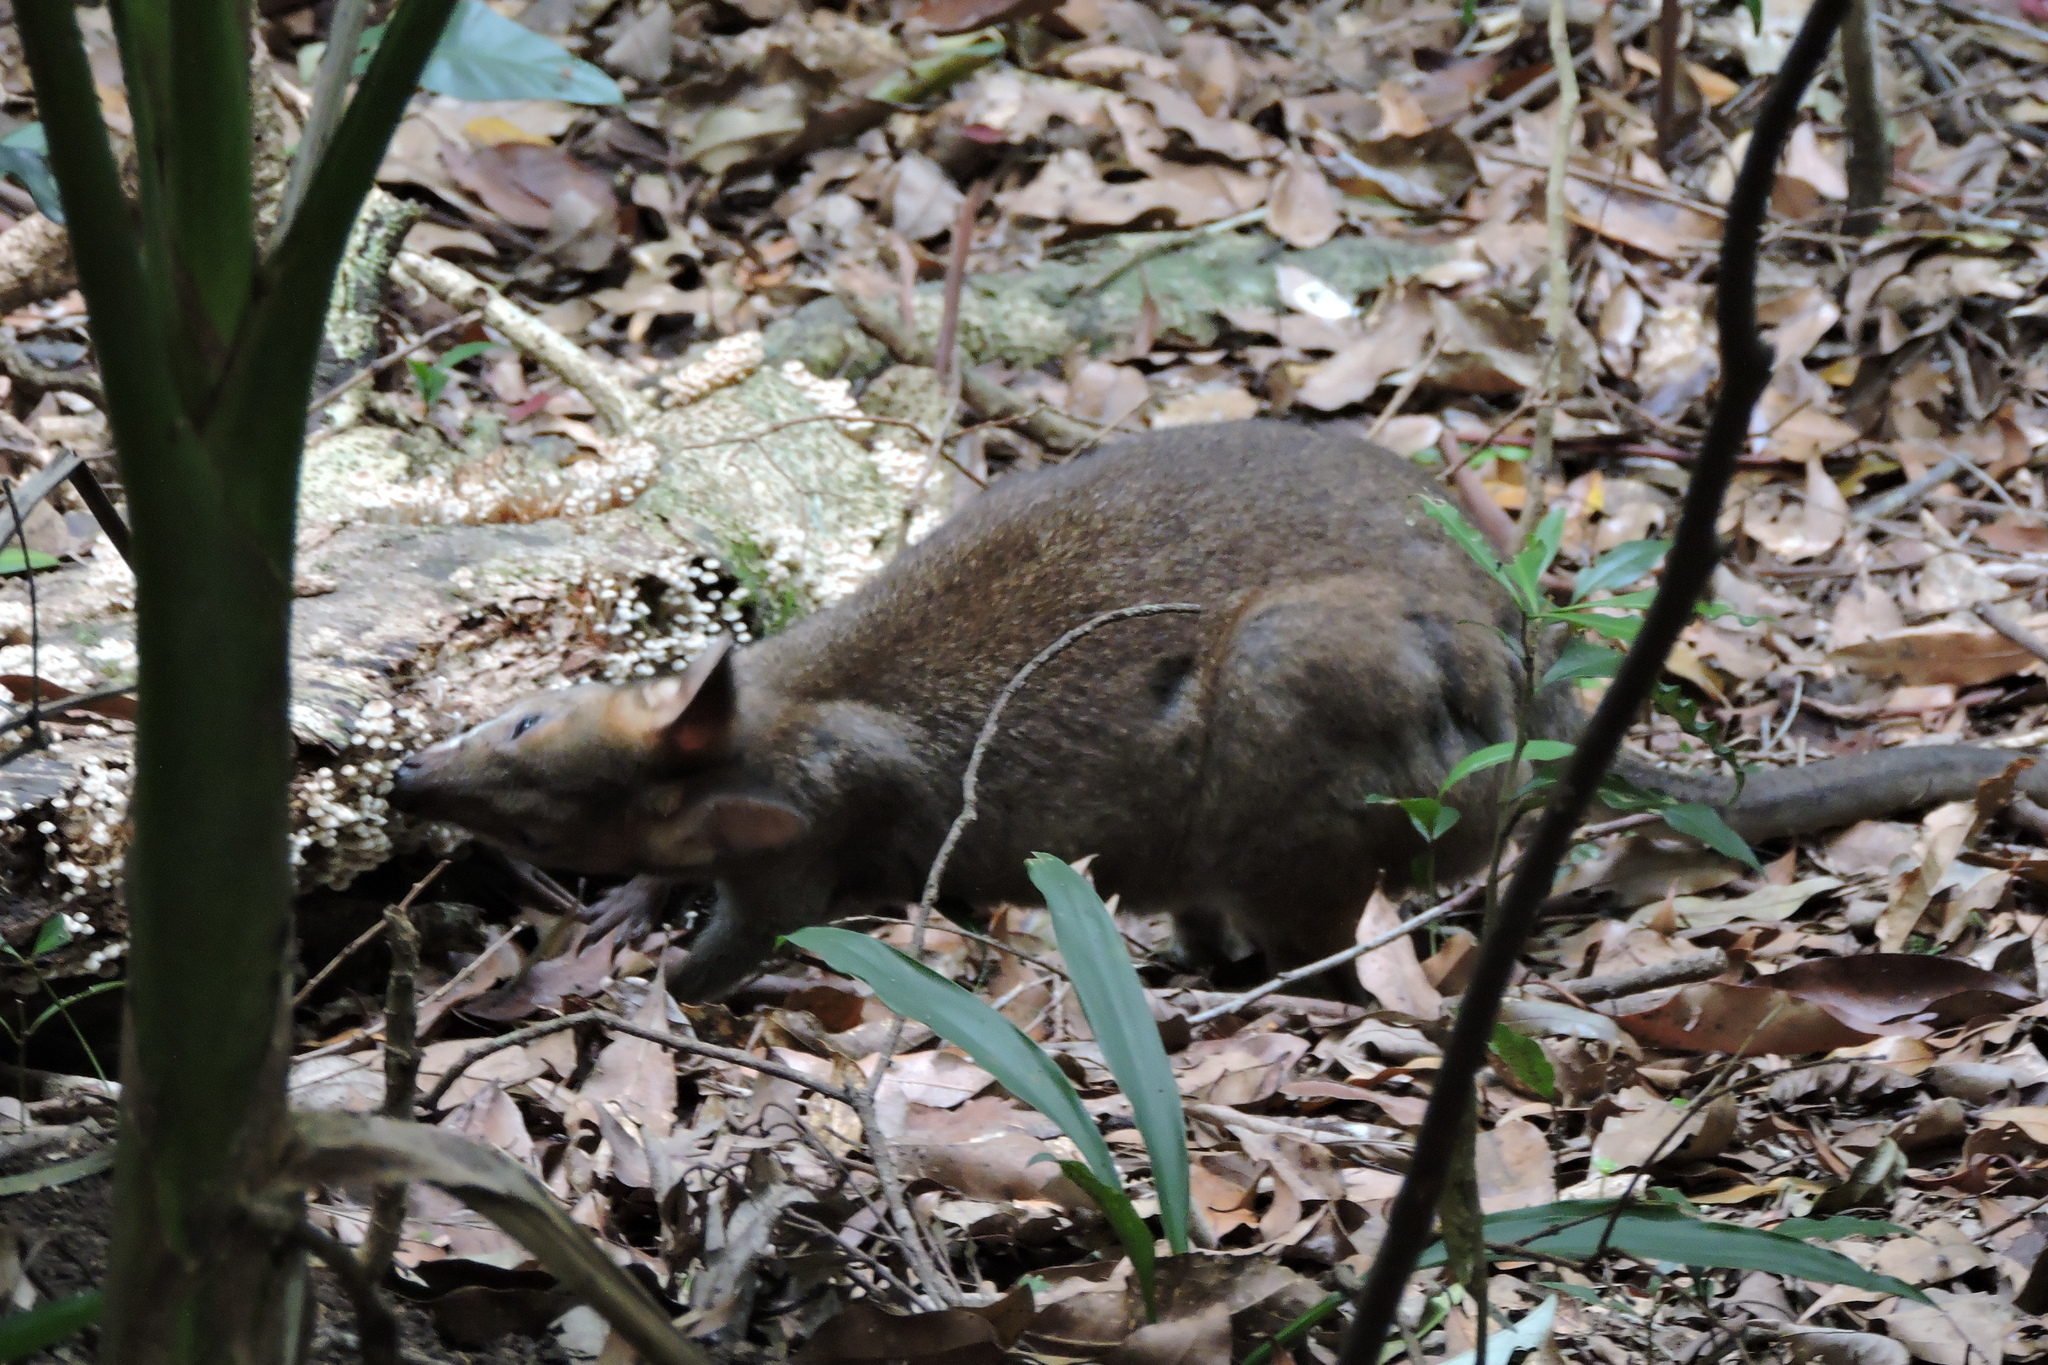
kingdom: Animalia
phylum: Chordata
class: Mammalia
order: Diprotodontia
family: Macropodidae
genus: Thylogale
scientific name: Thylogale stigmatica
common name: Red-legged pademelon
